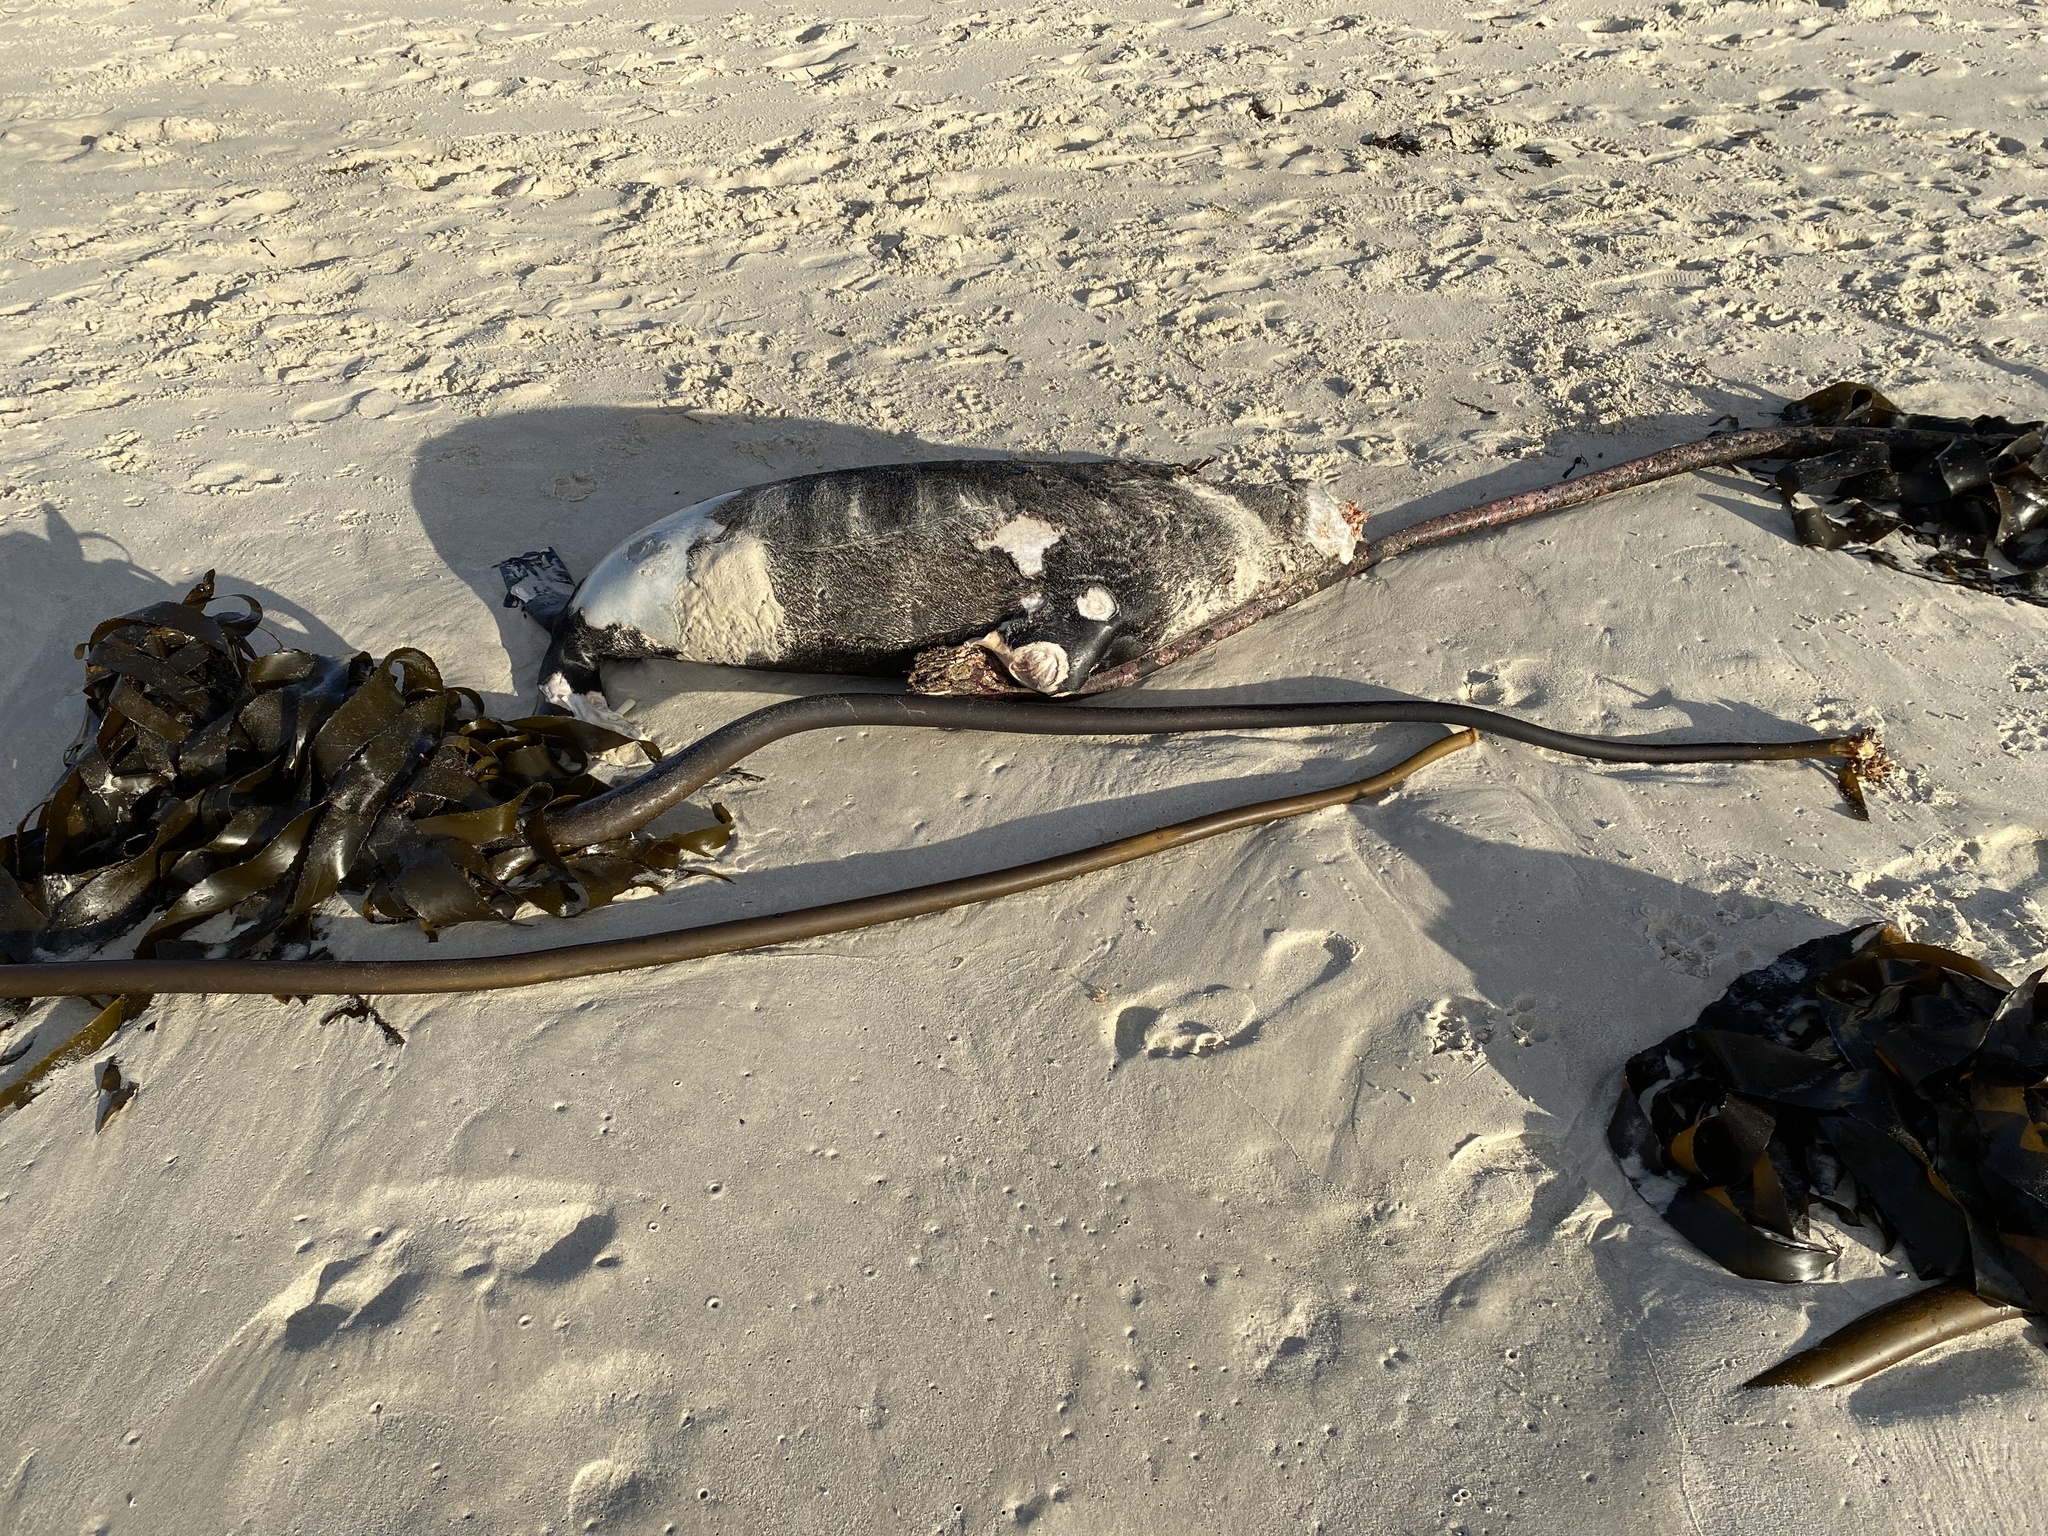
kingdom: Animalia
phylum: Chordata
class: Mammalia
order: Carnivora
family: Otariidae
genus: Arctocephalus
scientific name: Arctocephalus pusillus
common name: Brown fur seal
